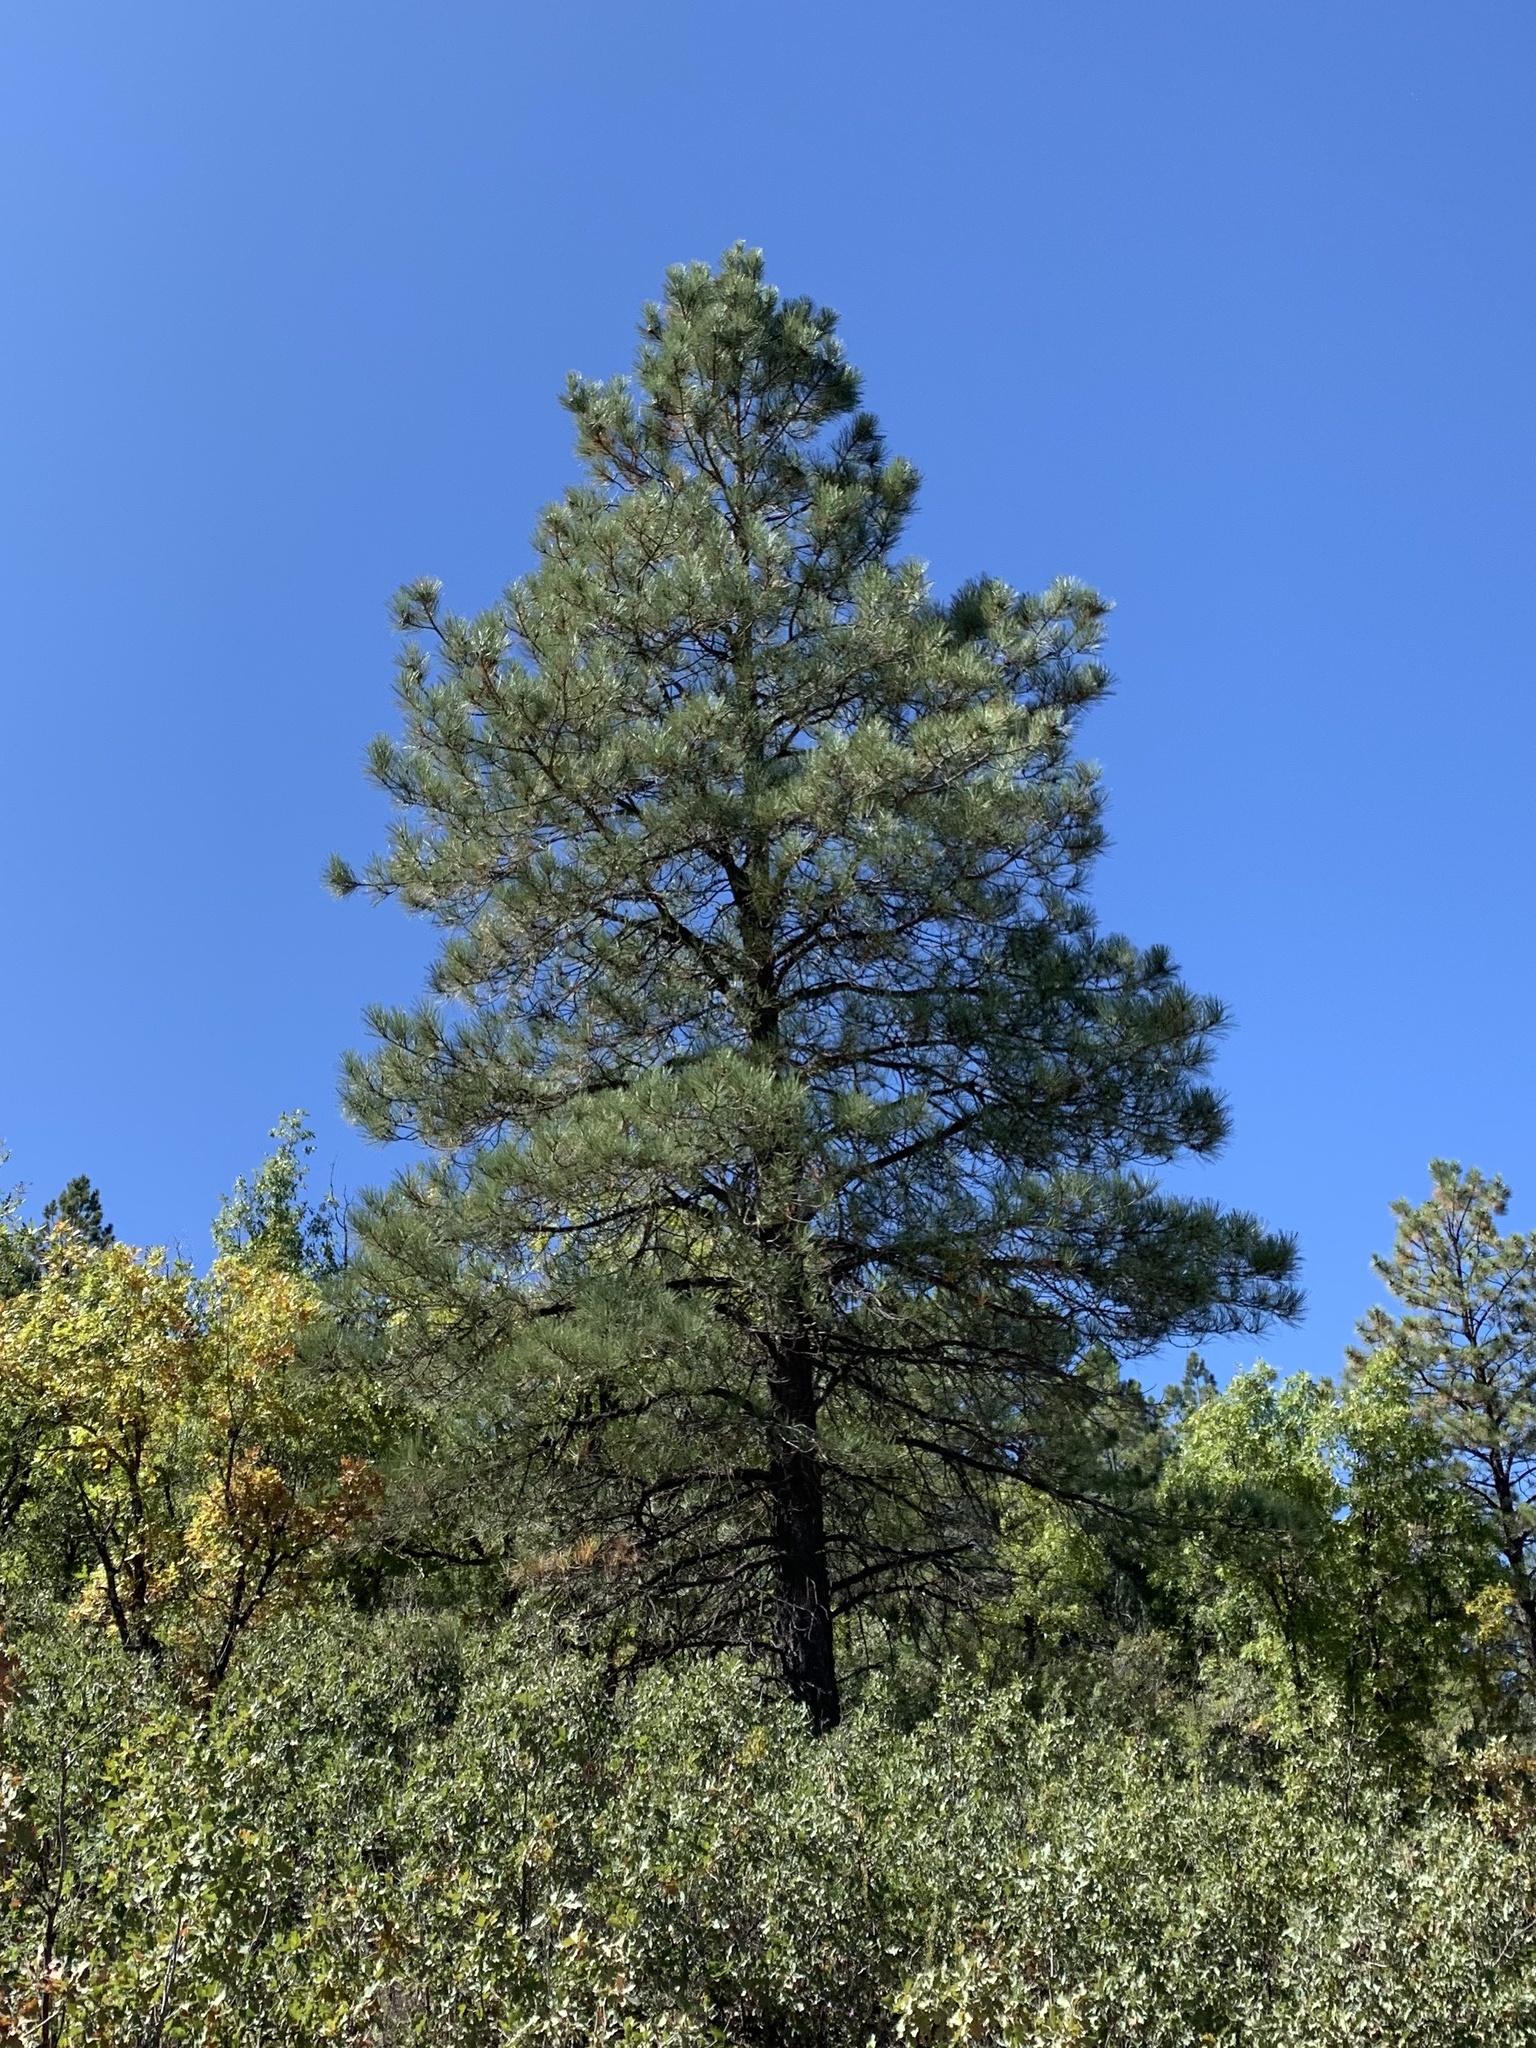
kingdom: Plantae
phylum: Tracheophyta
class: Pinopsida
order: Pinales
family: Pinaceae
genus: Pinus
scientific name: Pinus ponderosa
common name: Western yellow-pine
